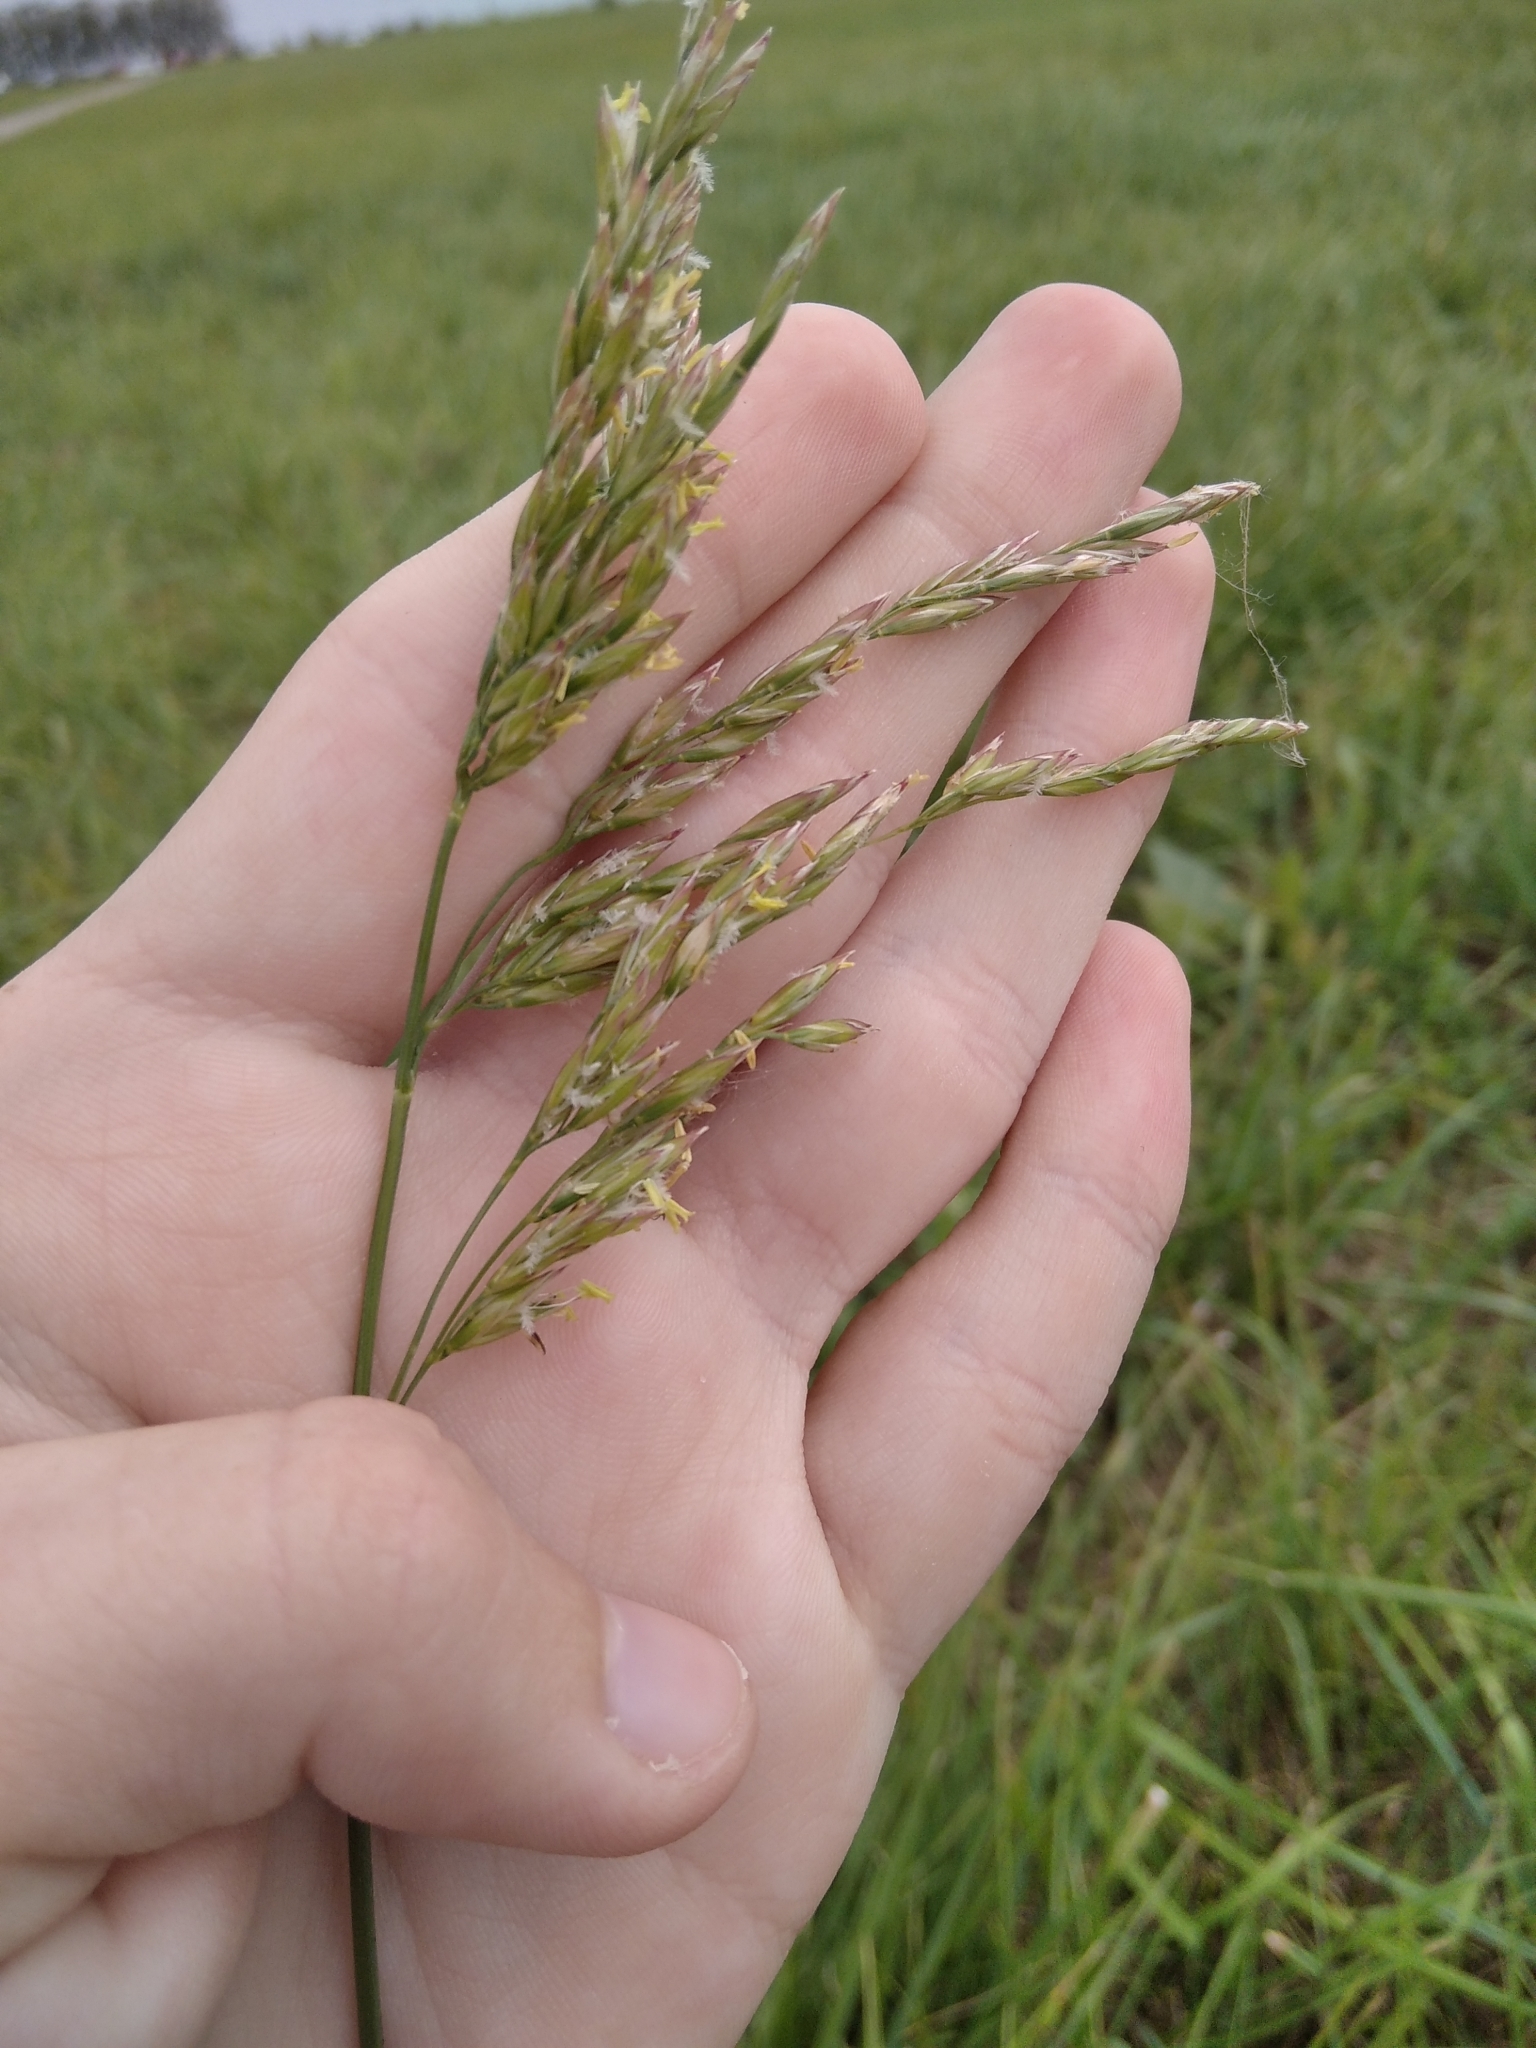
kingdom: Plantae
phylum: Tracheophyta
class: Liliopsida
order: Poales
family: Poaceae
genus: Lolium
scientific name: Lolium arundinaceum
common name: Reed fescue
